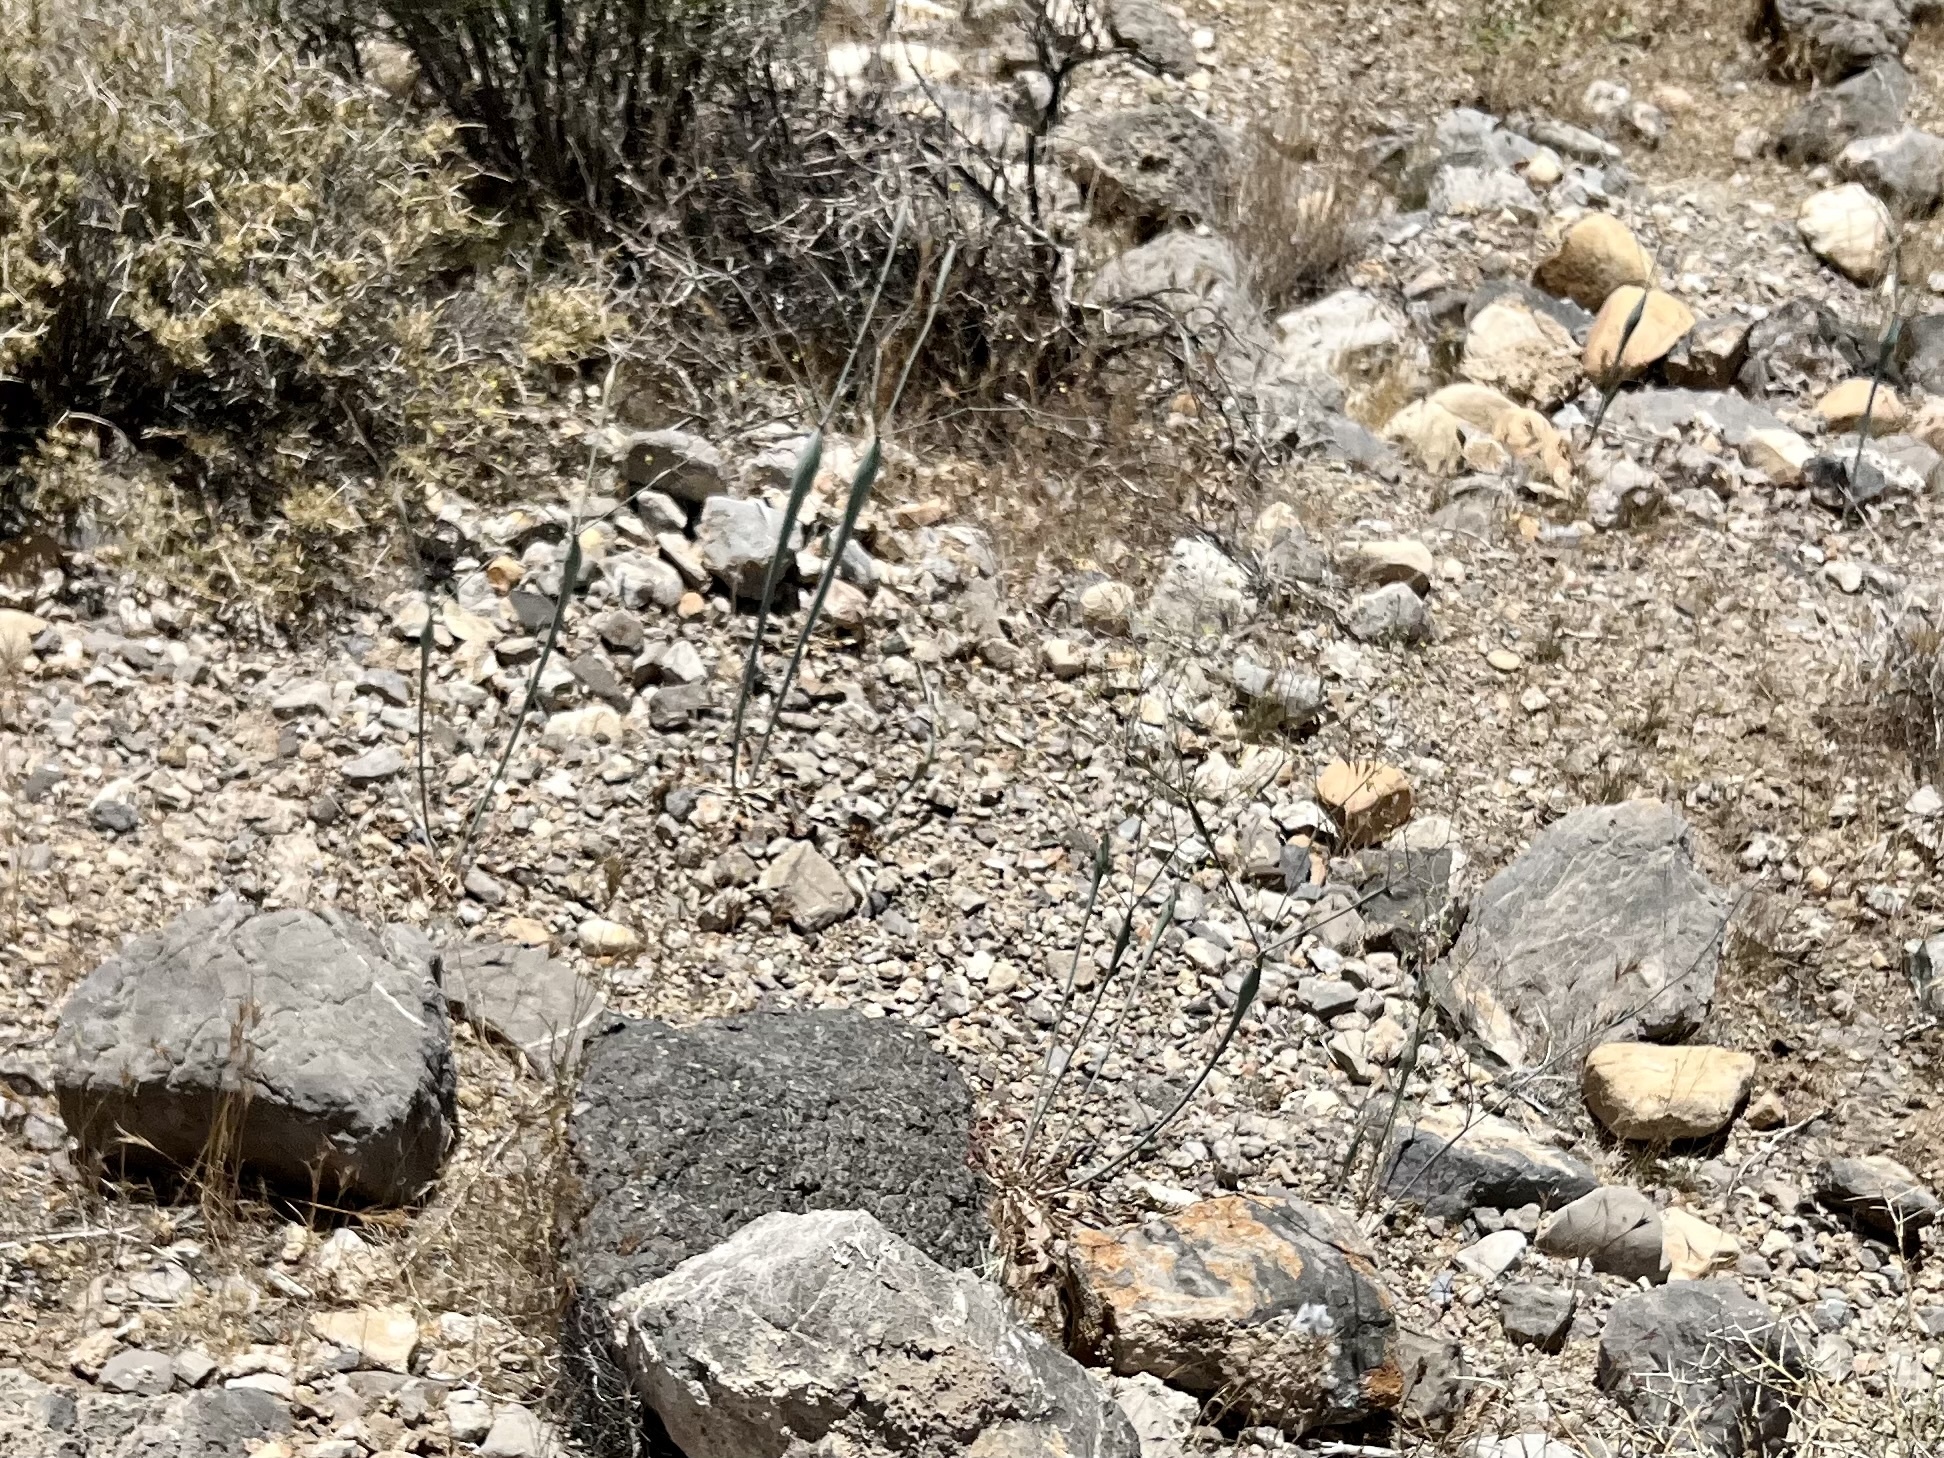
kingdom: Plantae
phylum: Tracheophyta
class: Magnoliopsida
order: Caryophyllales
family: Polygonaceae
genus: Eriogonum
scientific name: Eriogonum inflatum
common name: Desert trumpet
